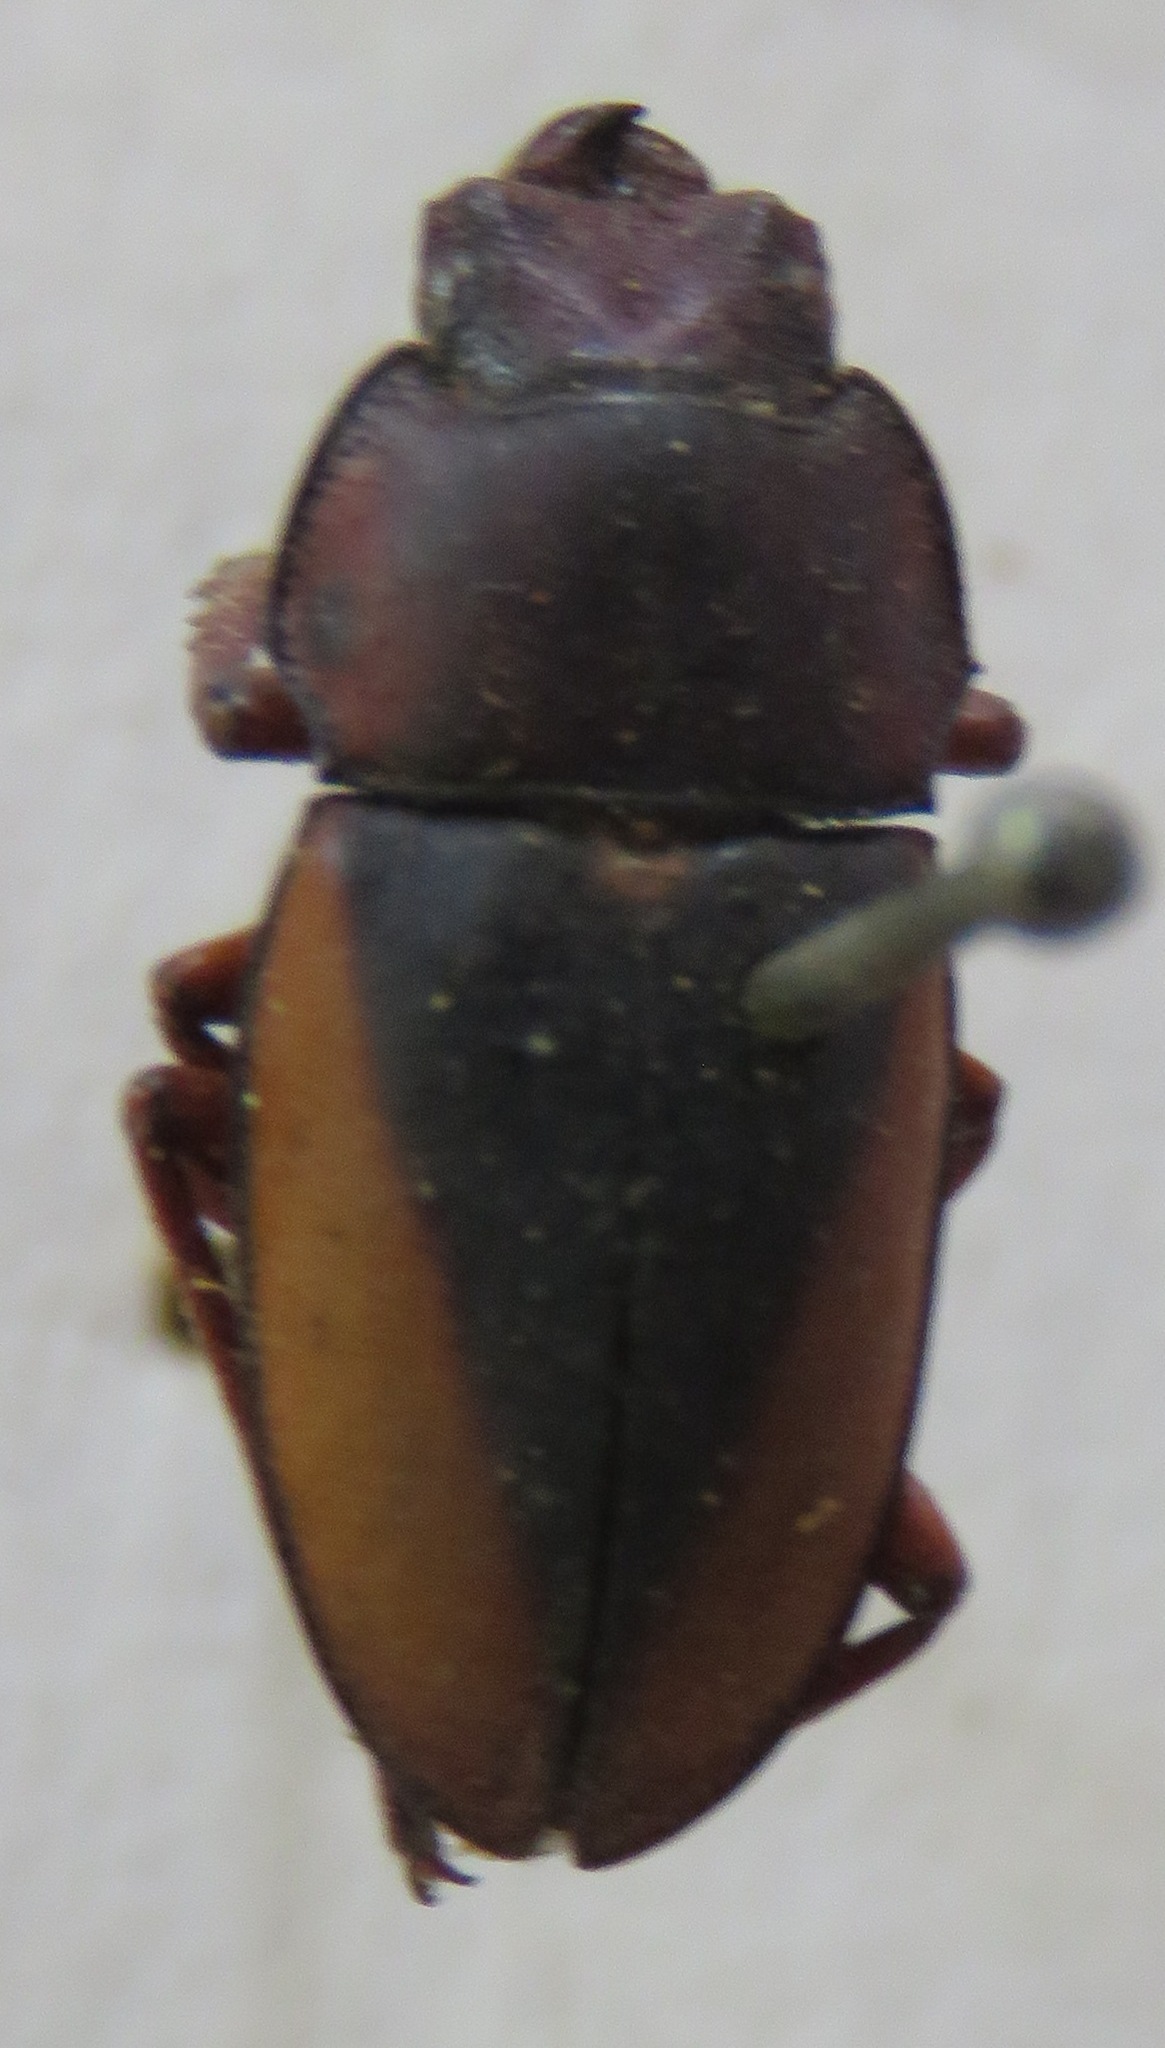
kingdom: Animalia
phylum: Arthropoda
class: Insecta
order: Coleoptera
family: Lucanidae
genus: Leptinopterus
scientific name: Leptinopterus v-nigrum
